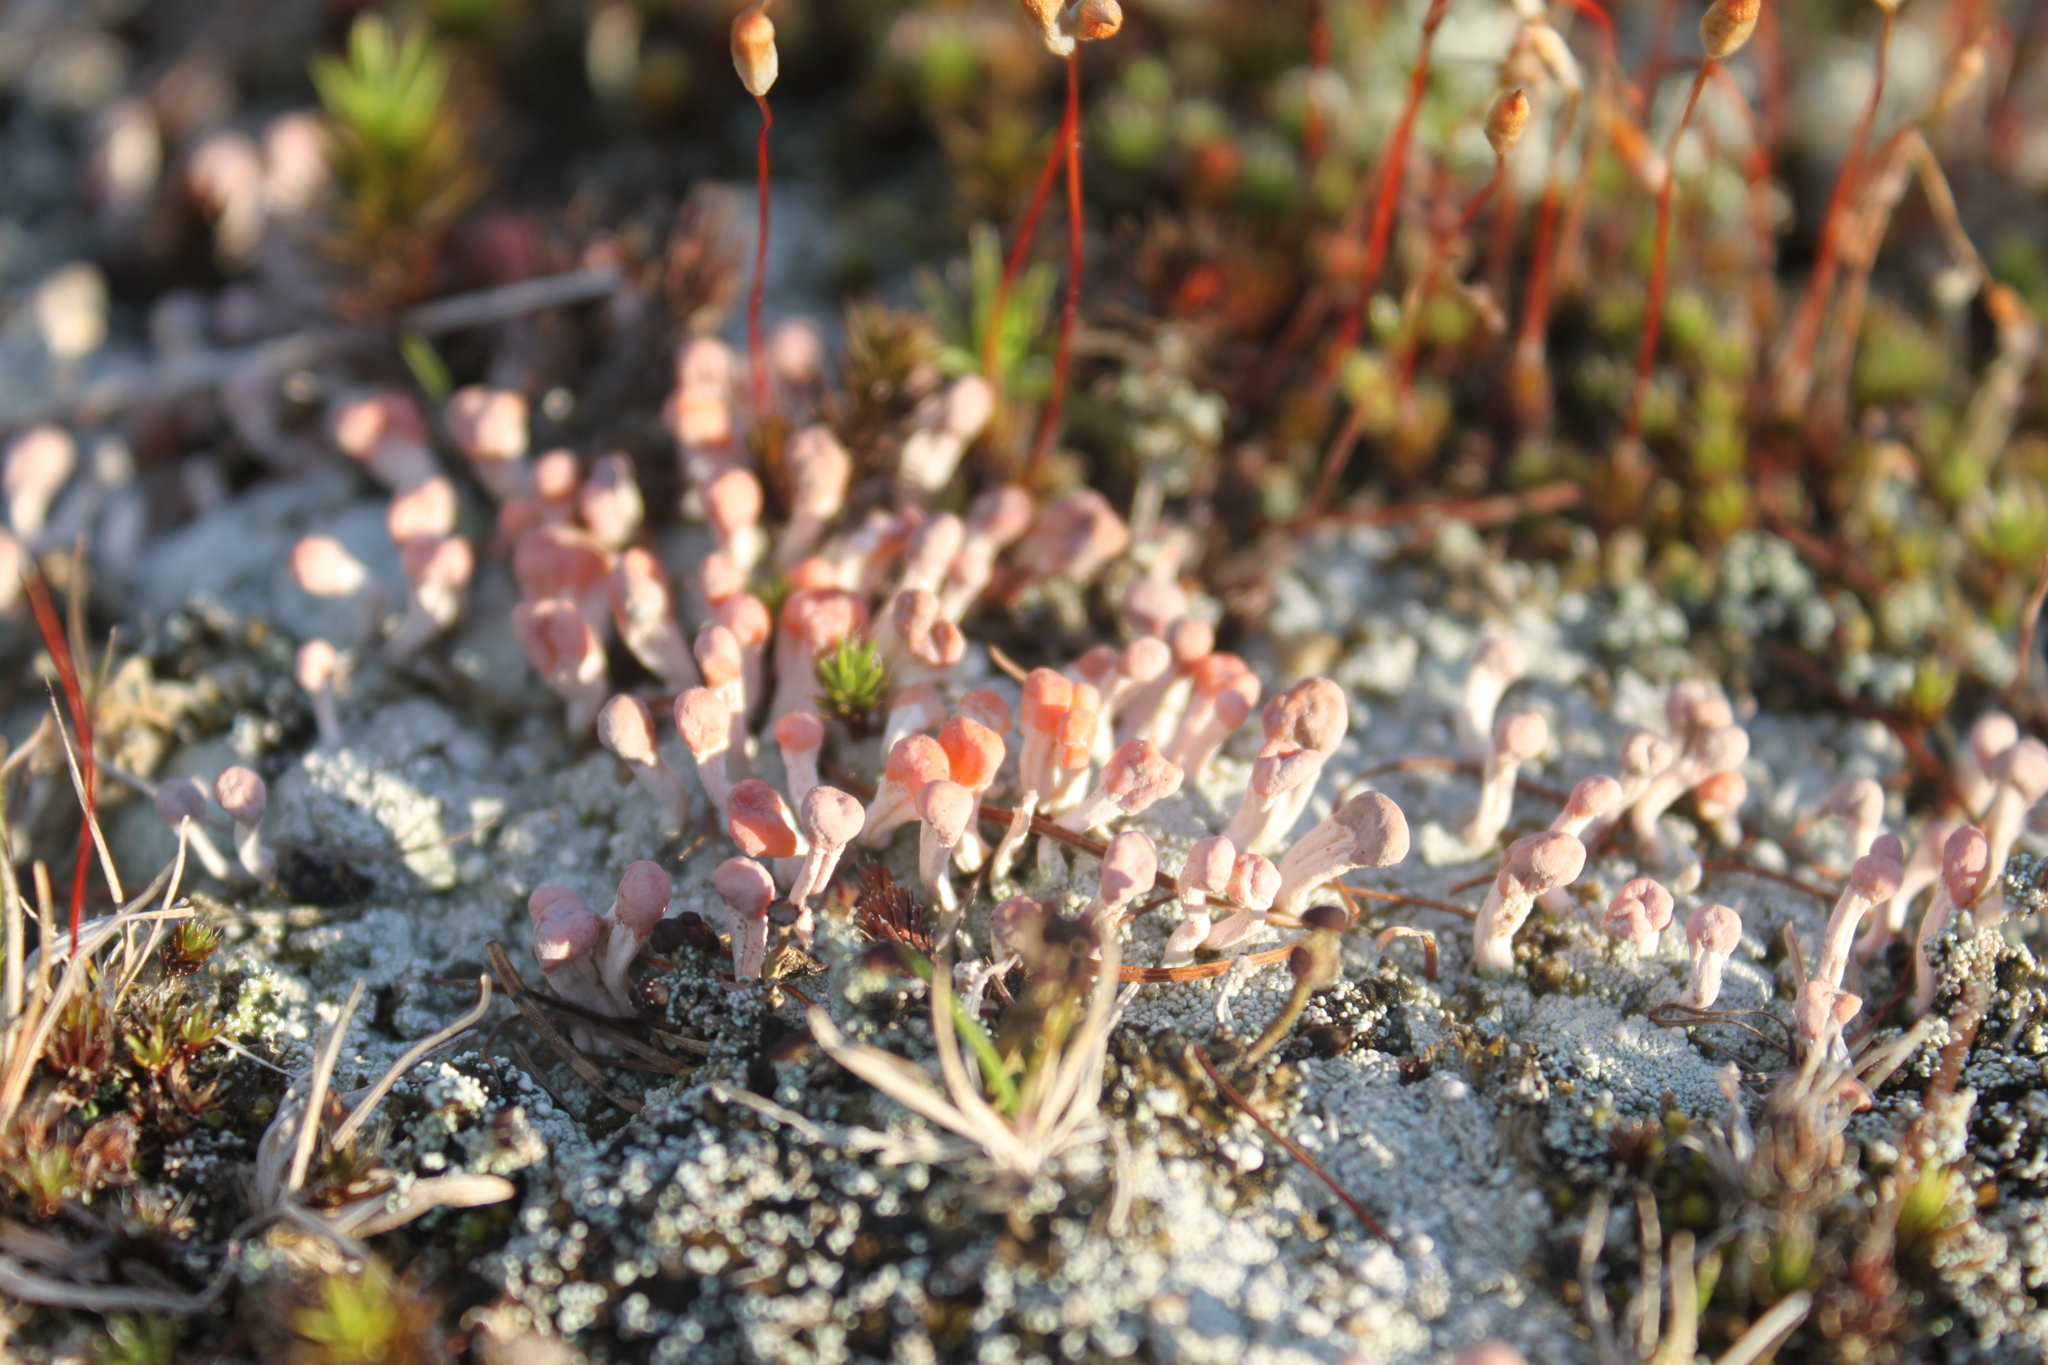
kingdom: Fungi
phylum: Ascomycota
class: Lecanoromycetes
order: Pertusariales
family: Icmadophilaceae
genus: Dibaeis
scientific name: Dibaeis baeomyces
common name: Pink earth lichen
